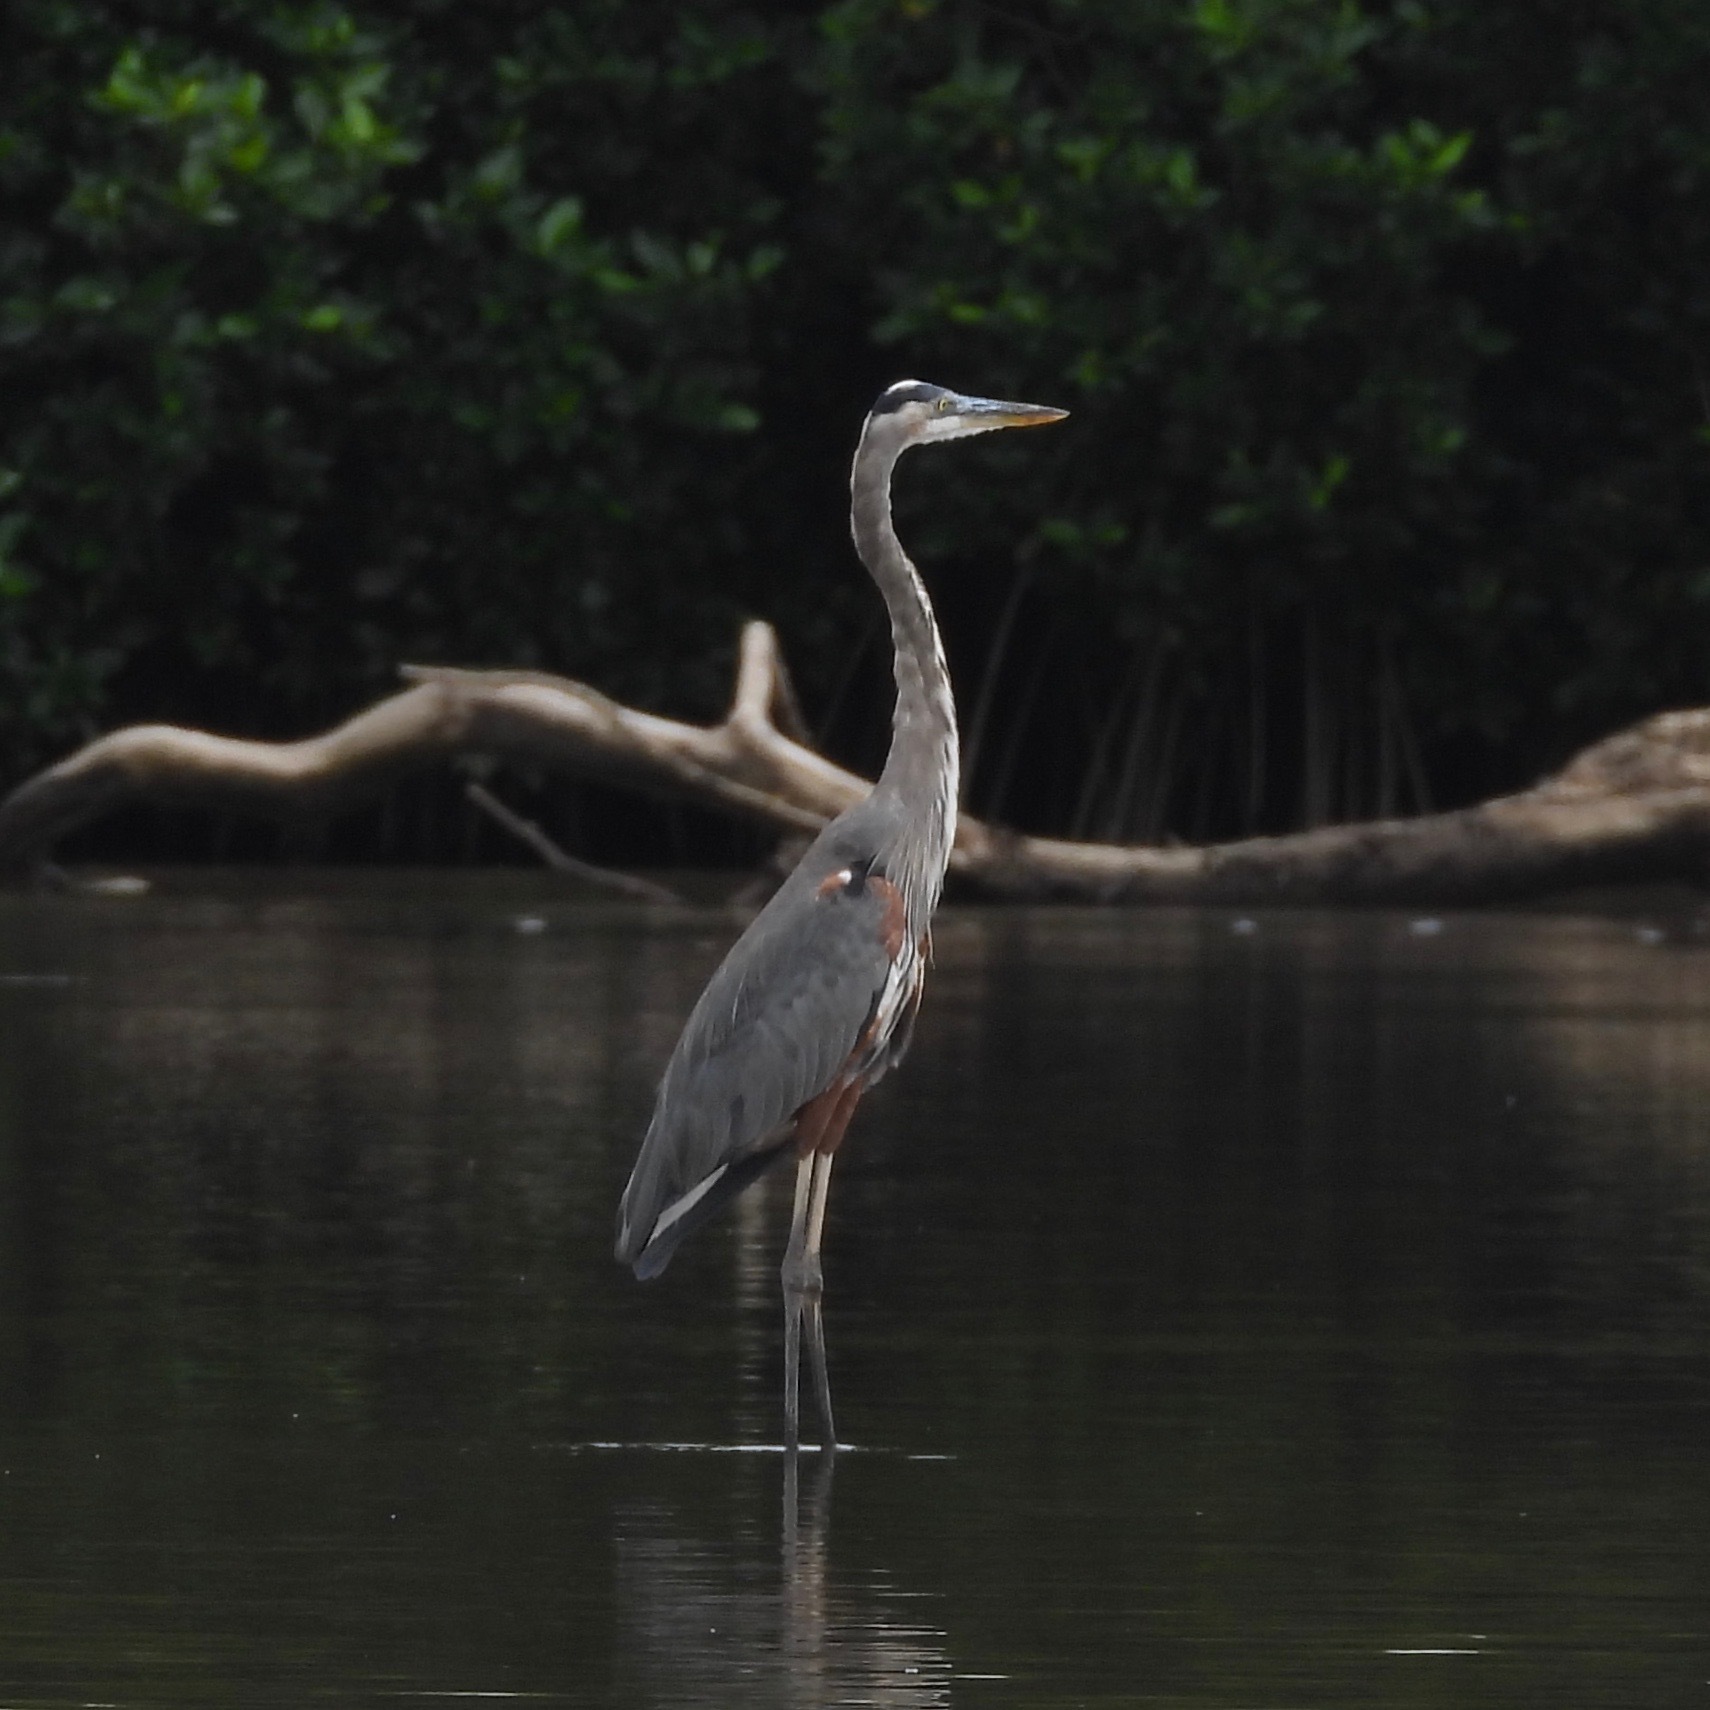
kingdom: Animalia
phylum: Chordata
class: Aves
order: Pelecaniformes
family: Ardeidae
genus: Ardea
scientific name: Ardea herodias
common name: Great blue heron
